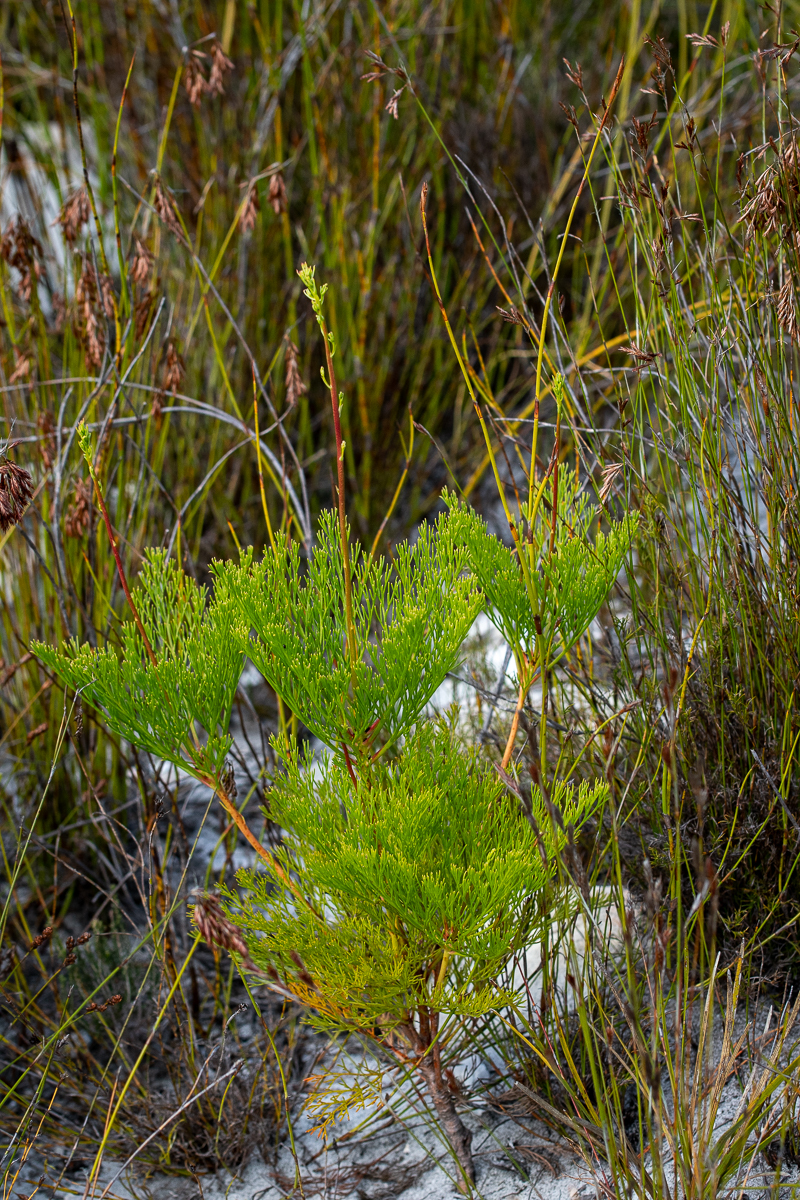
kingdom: Plantae
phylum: Tracheophyta
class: Magnoliopsida
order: Proteales
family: Proteaceae
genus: Serruria
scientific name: Serruria elongata
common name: Long-stalk spiderhead
